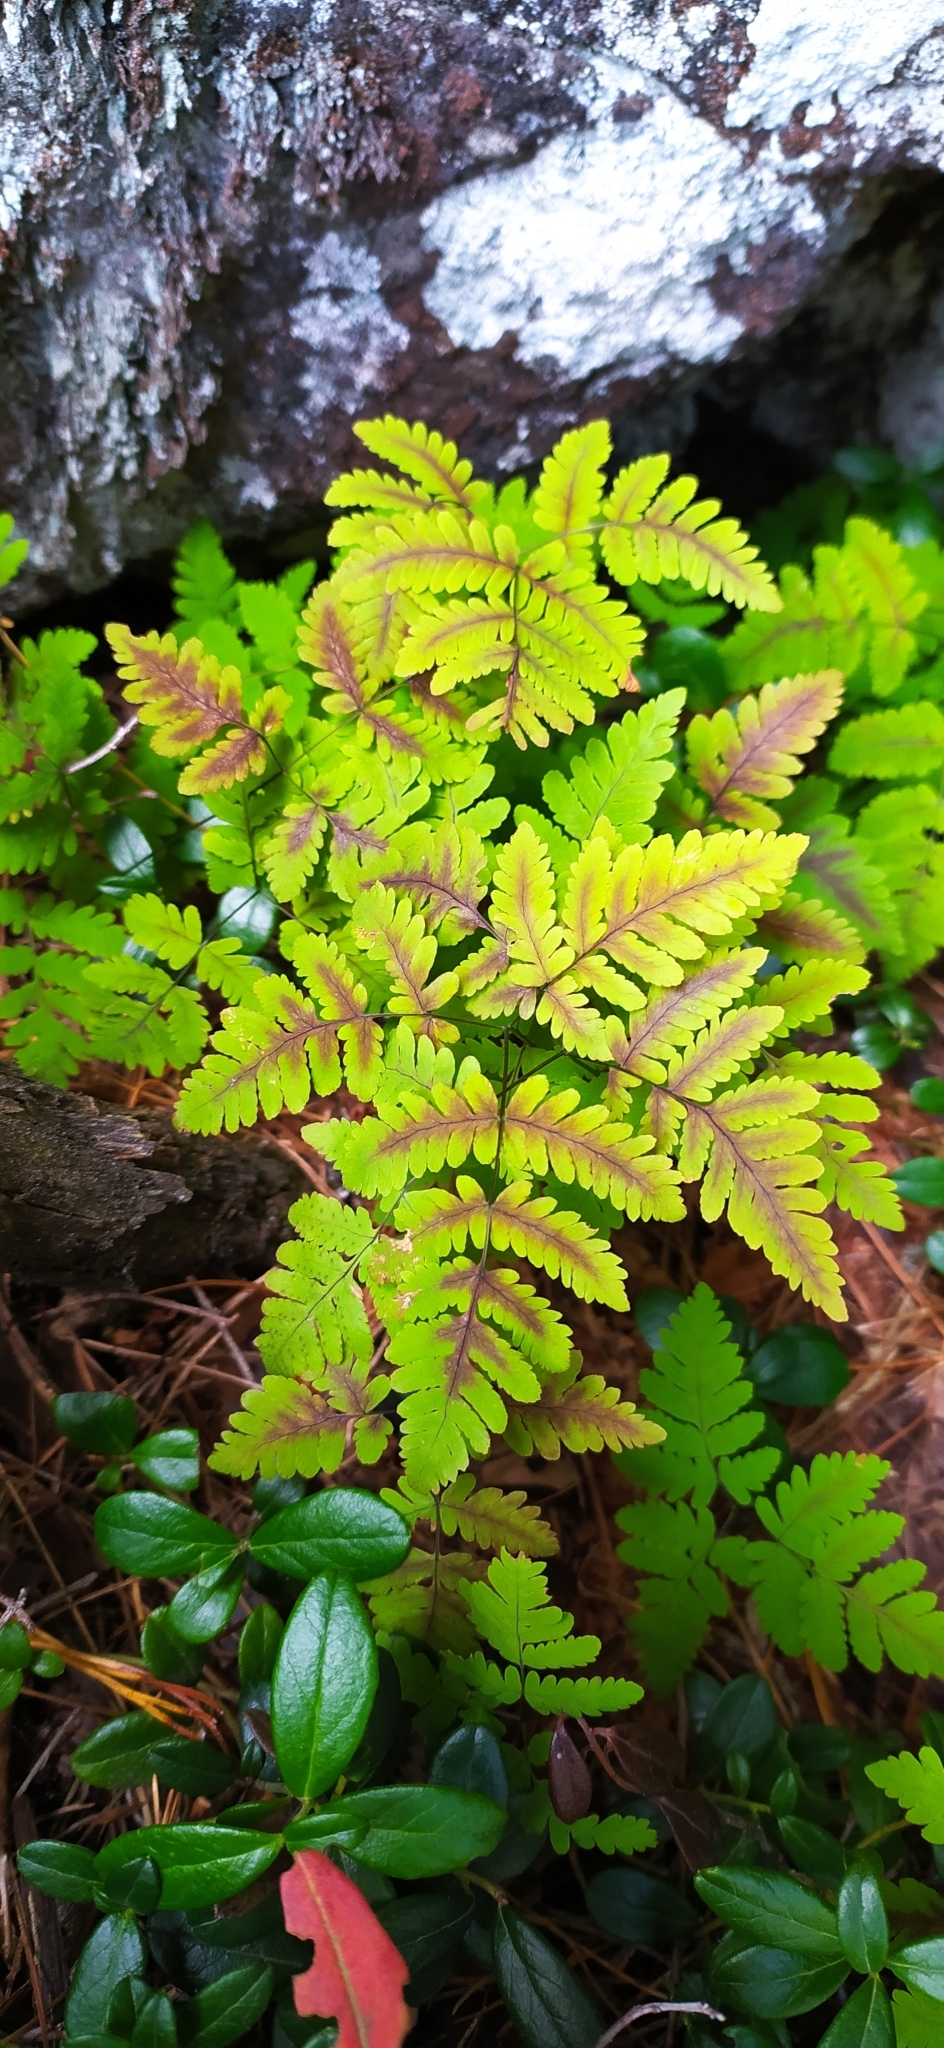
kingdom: Plantae
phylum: Tracheophyta
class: Polypodiopsida
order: Polypodiales
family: Cystopteridaceae
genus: Gymnocarpium
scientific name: Gymnocarpium dryopteris
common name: Oak fern
